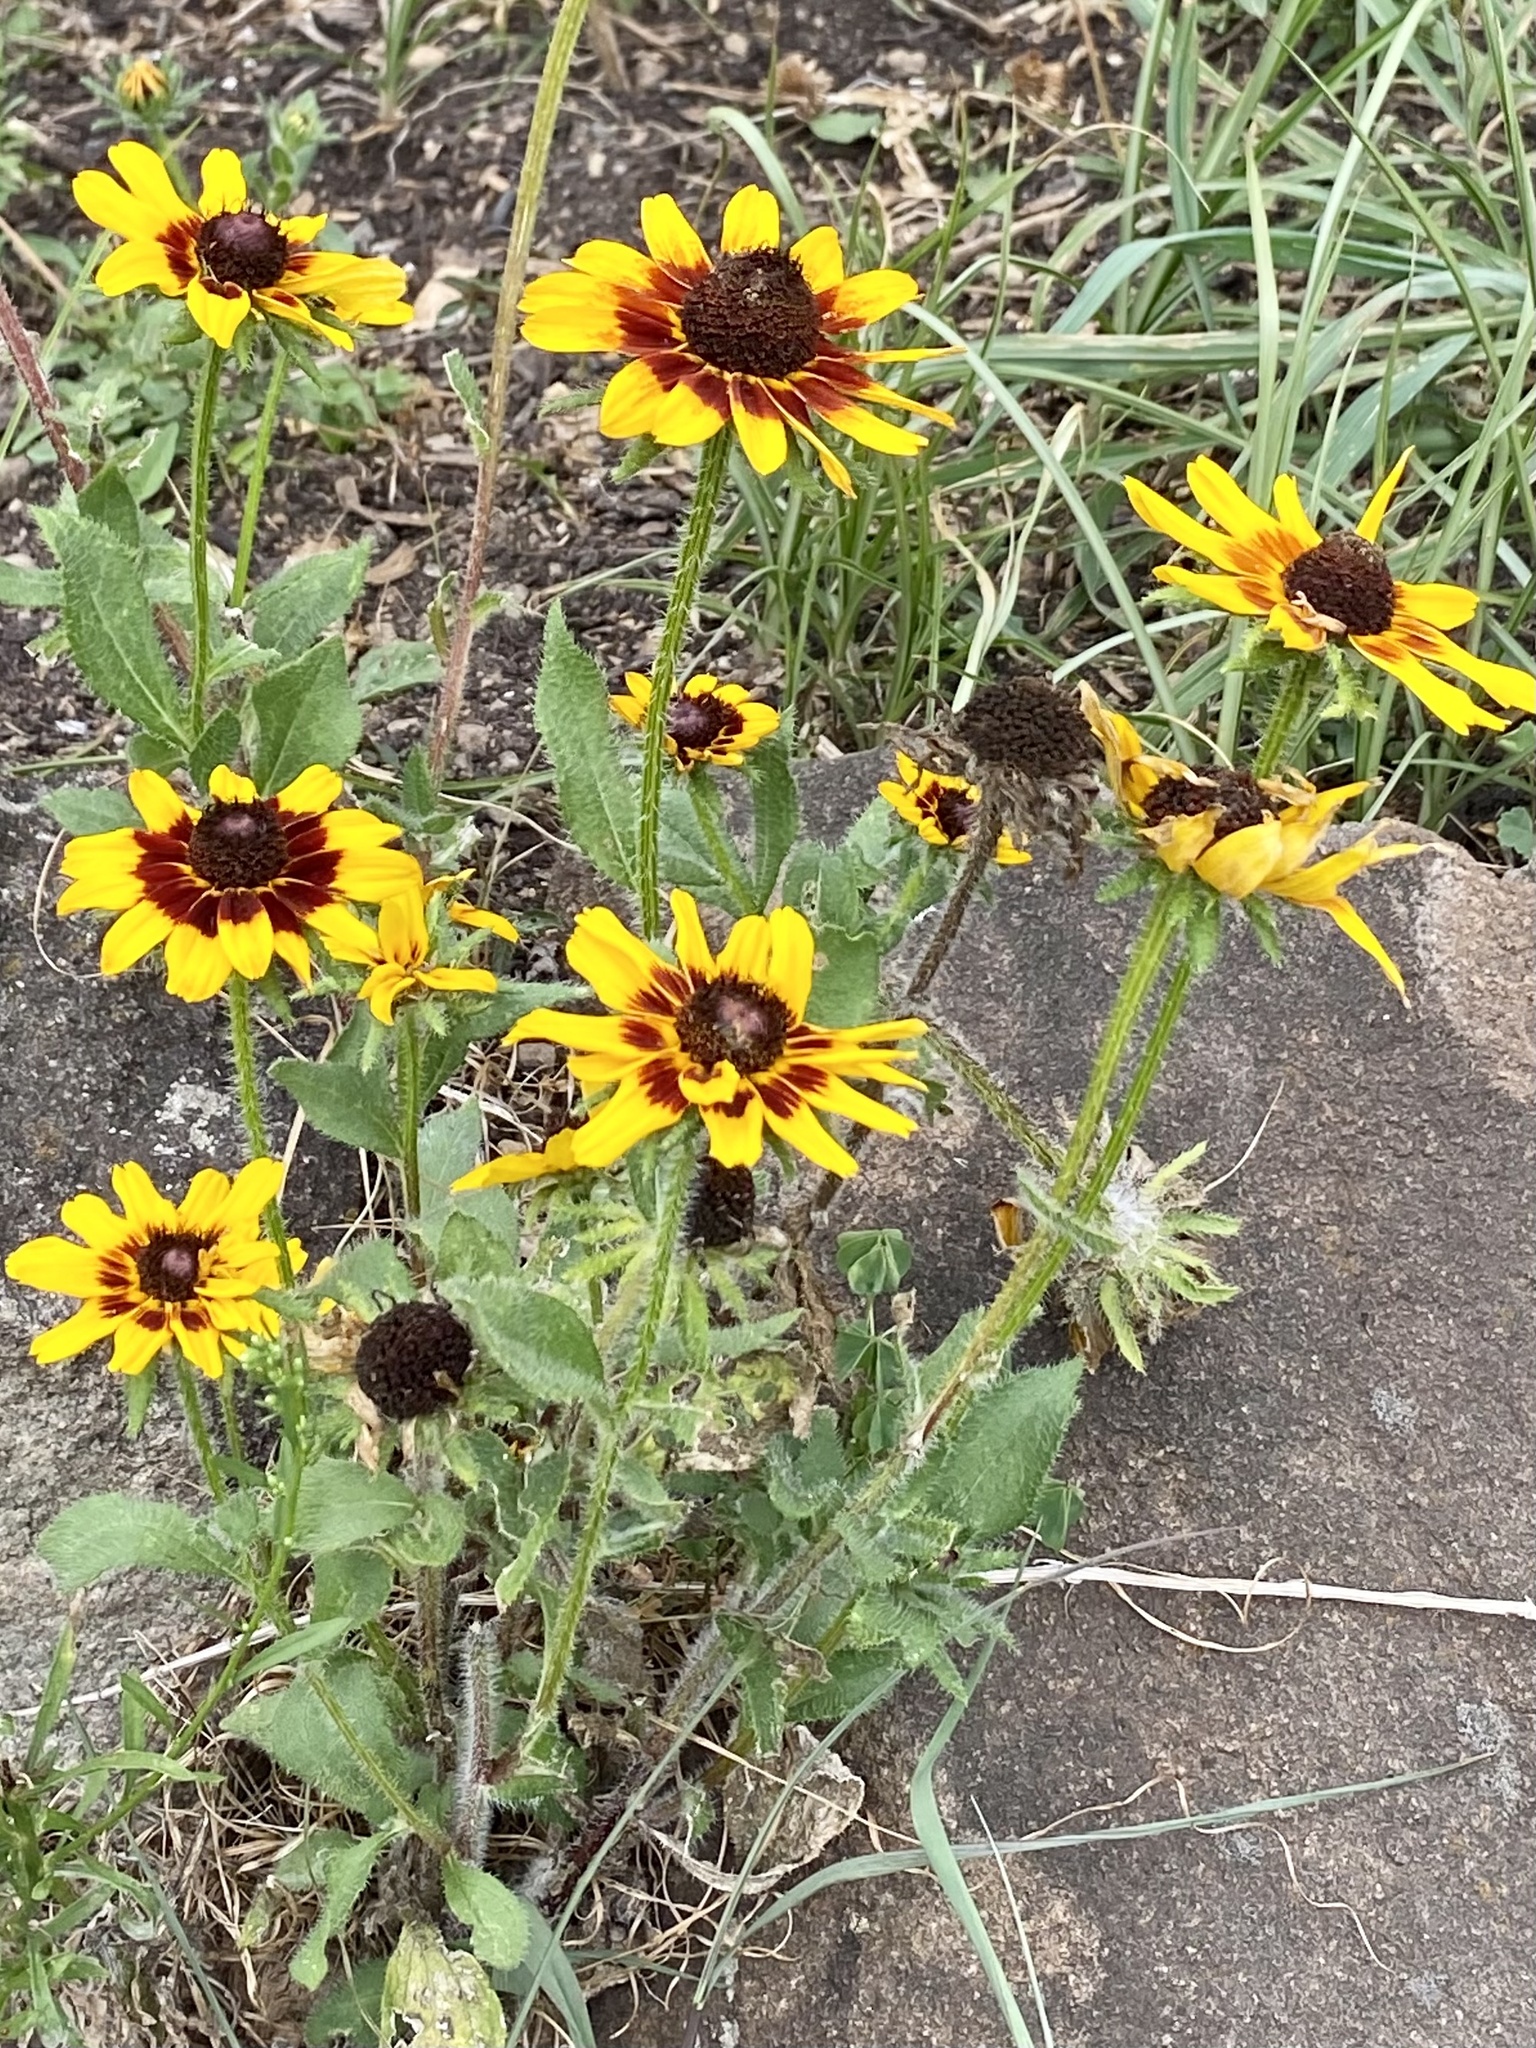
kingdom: Plantae
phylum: Tracheophyta
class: Magnoliopsida
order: Asterales
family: Asteraceae
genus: Rudbeckia
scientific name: Rudbeckia hirta
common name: Black-eyed-susan
